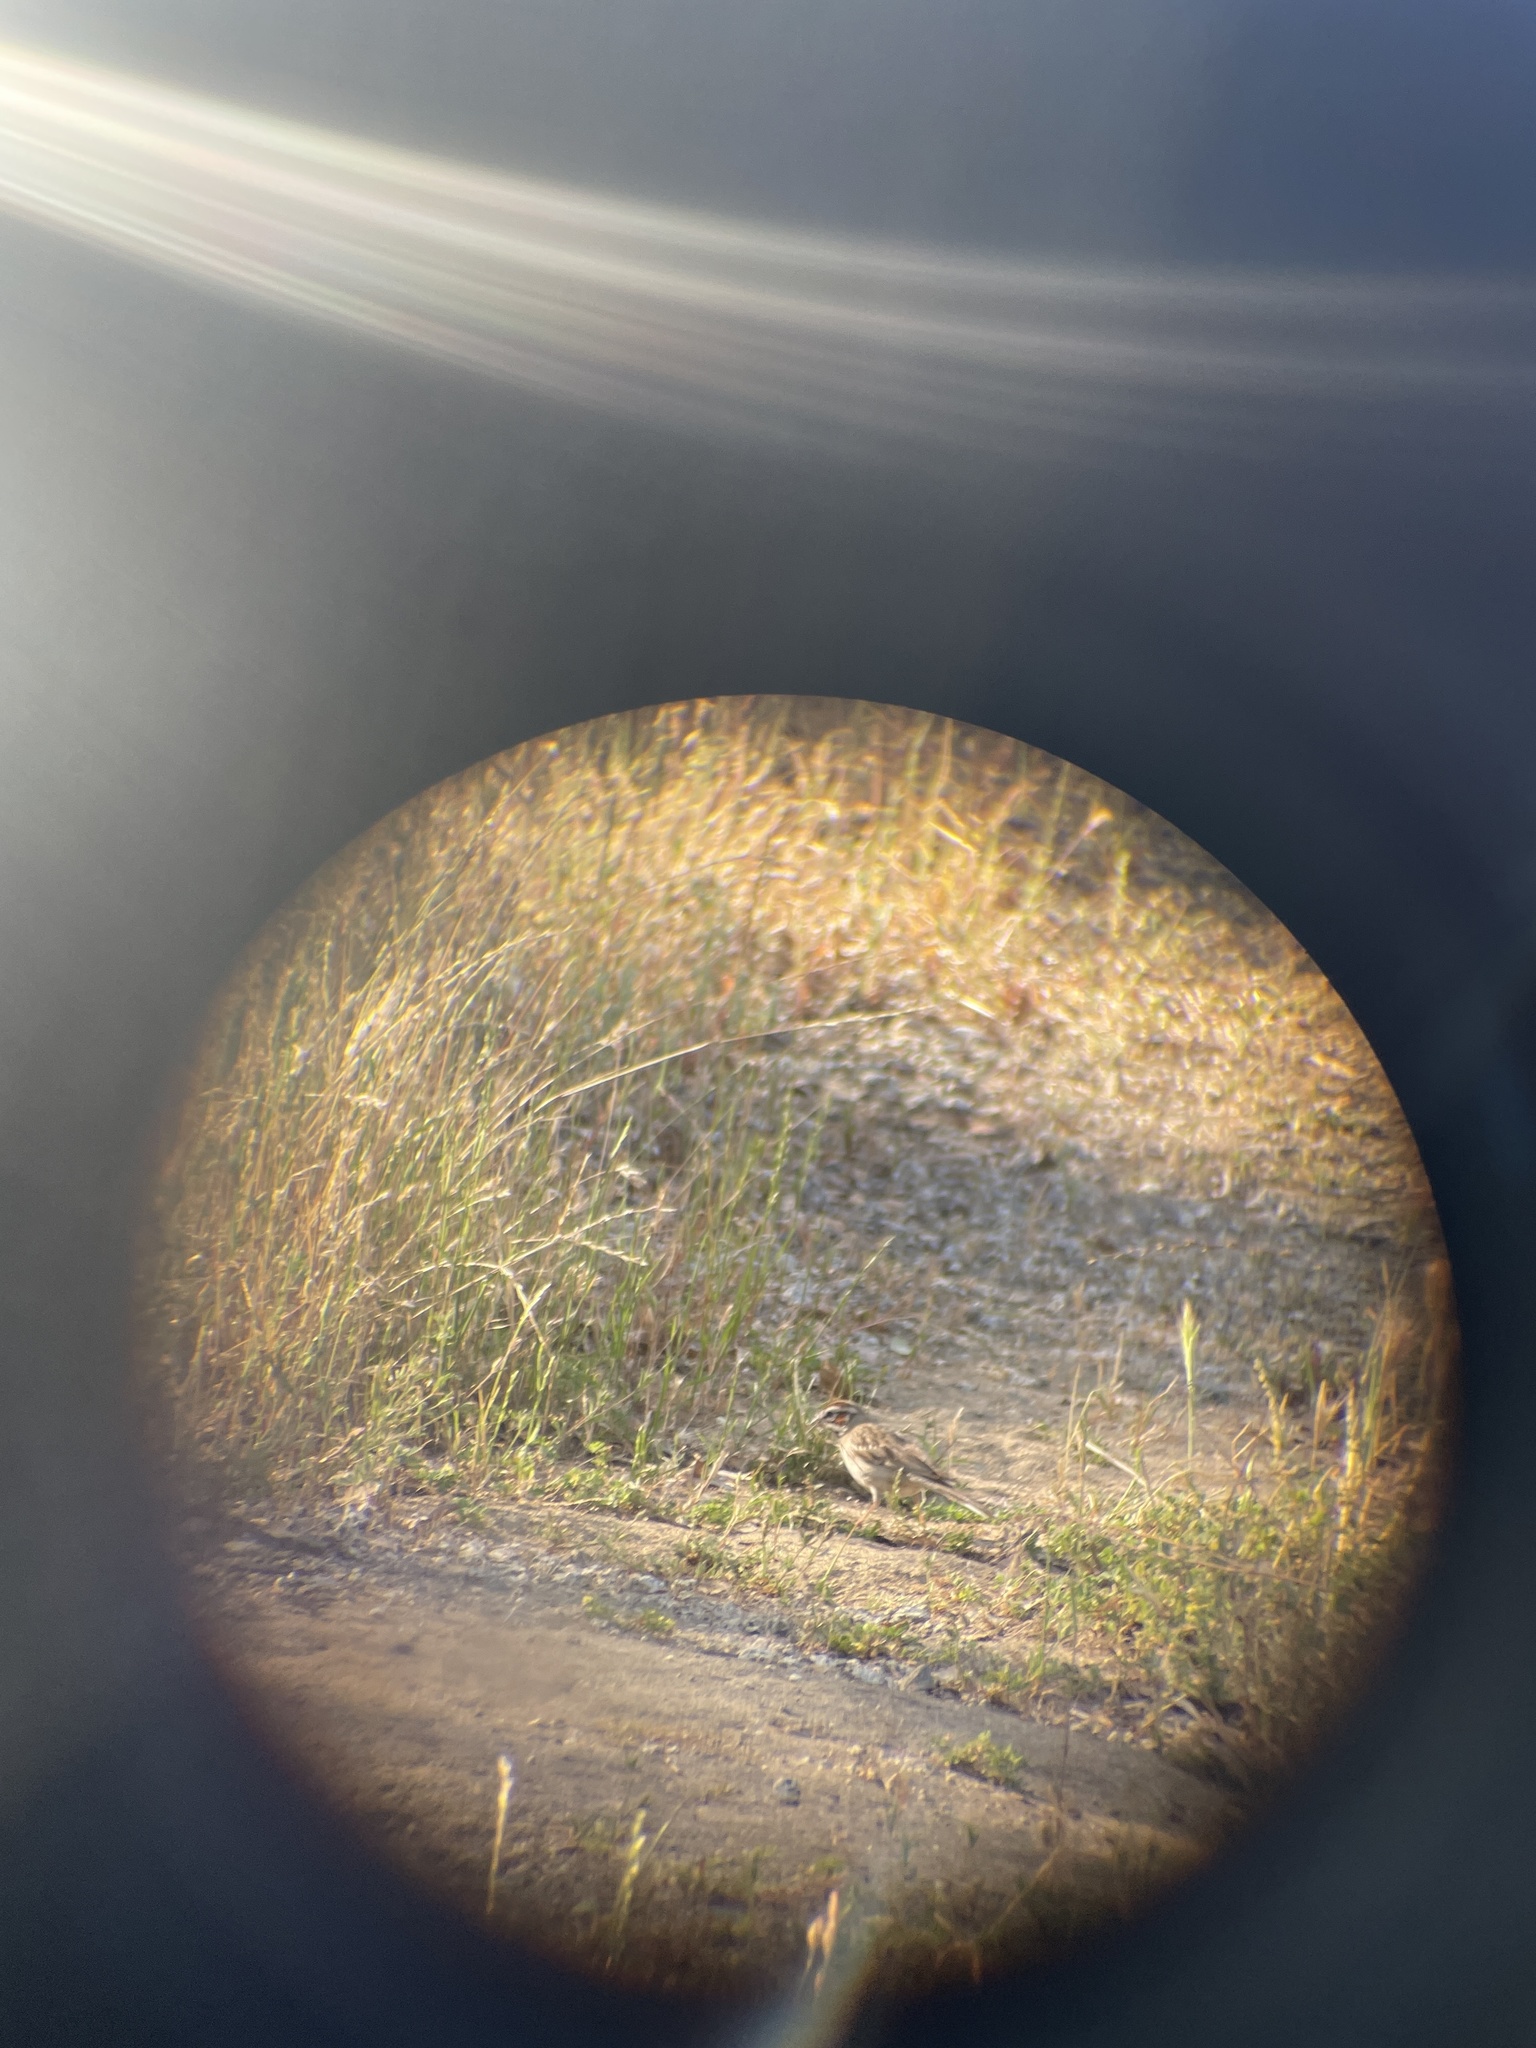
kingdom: Animalia
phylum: Chordata
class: Aves
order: Passeriformes
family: Passerellidae
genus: Chondestes
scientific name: Chondestes grammacus
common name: Lark sparrow
